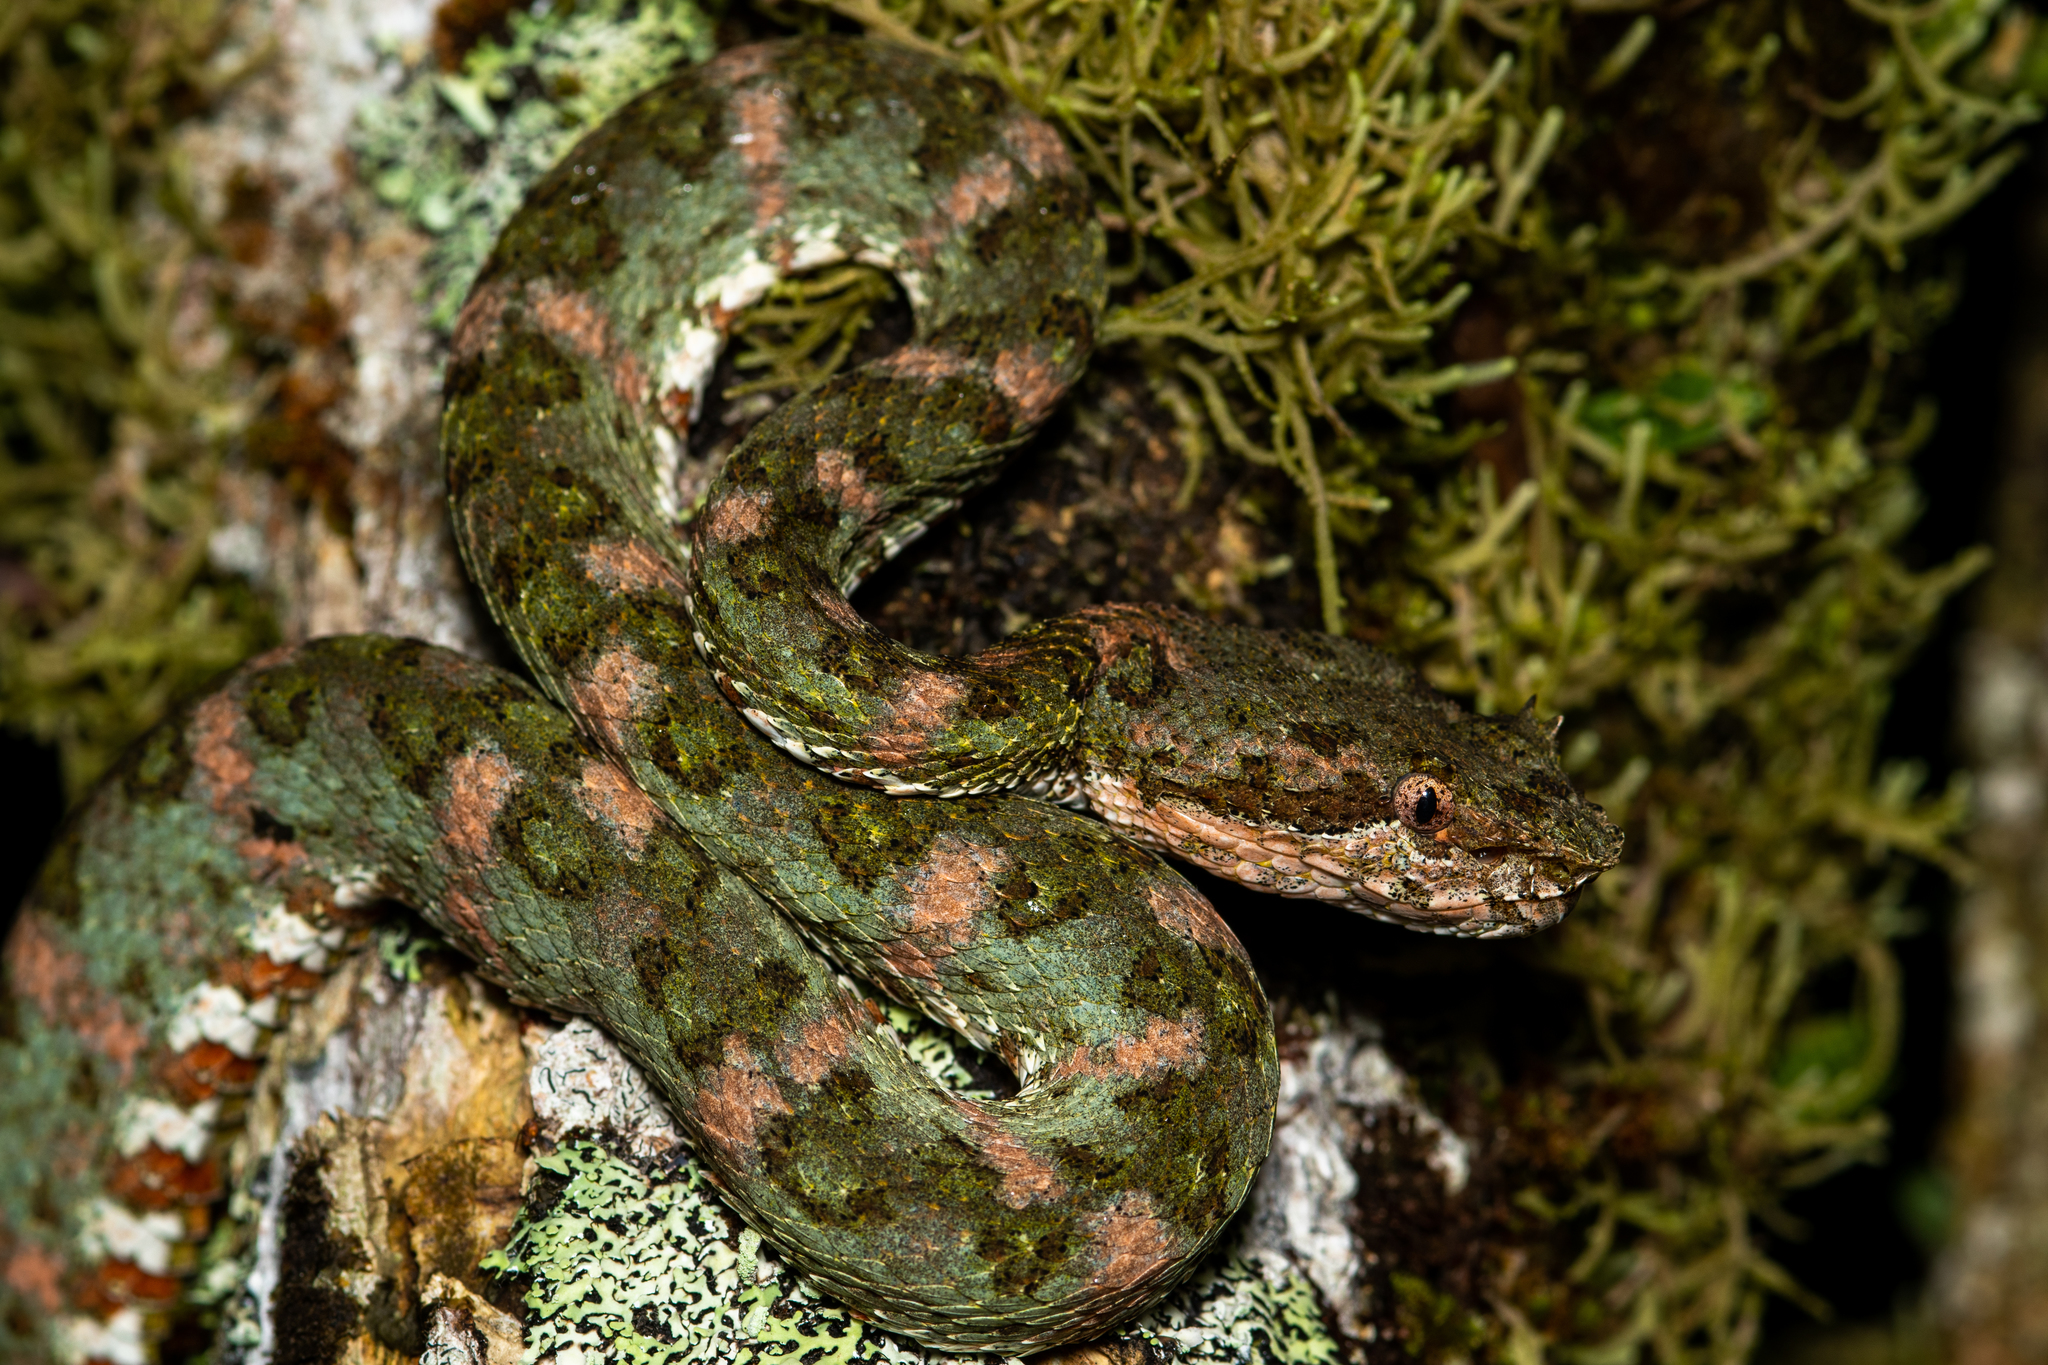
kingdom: Animalia
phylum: Chordata
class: Squamata
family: Viperidae
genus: Bothriechis
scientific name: Bothriechis schlegelii
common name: Eyelash viper
